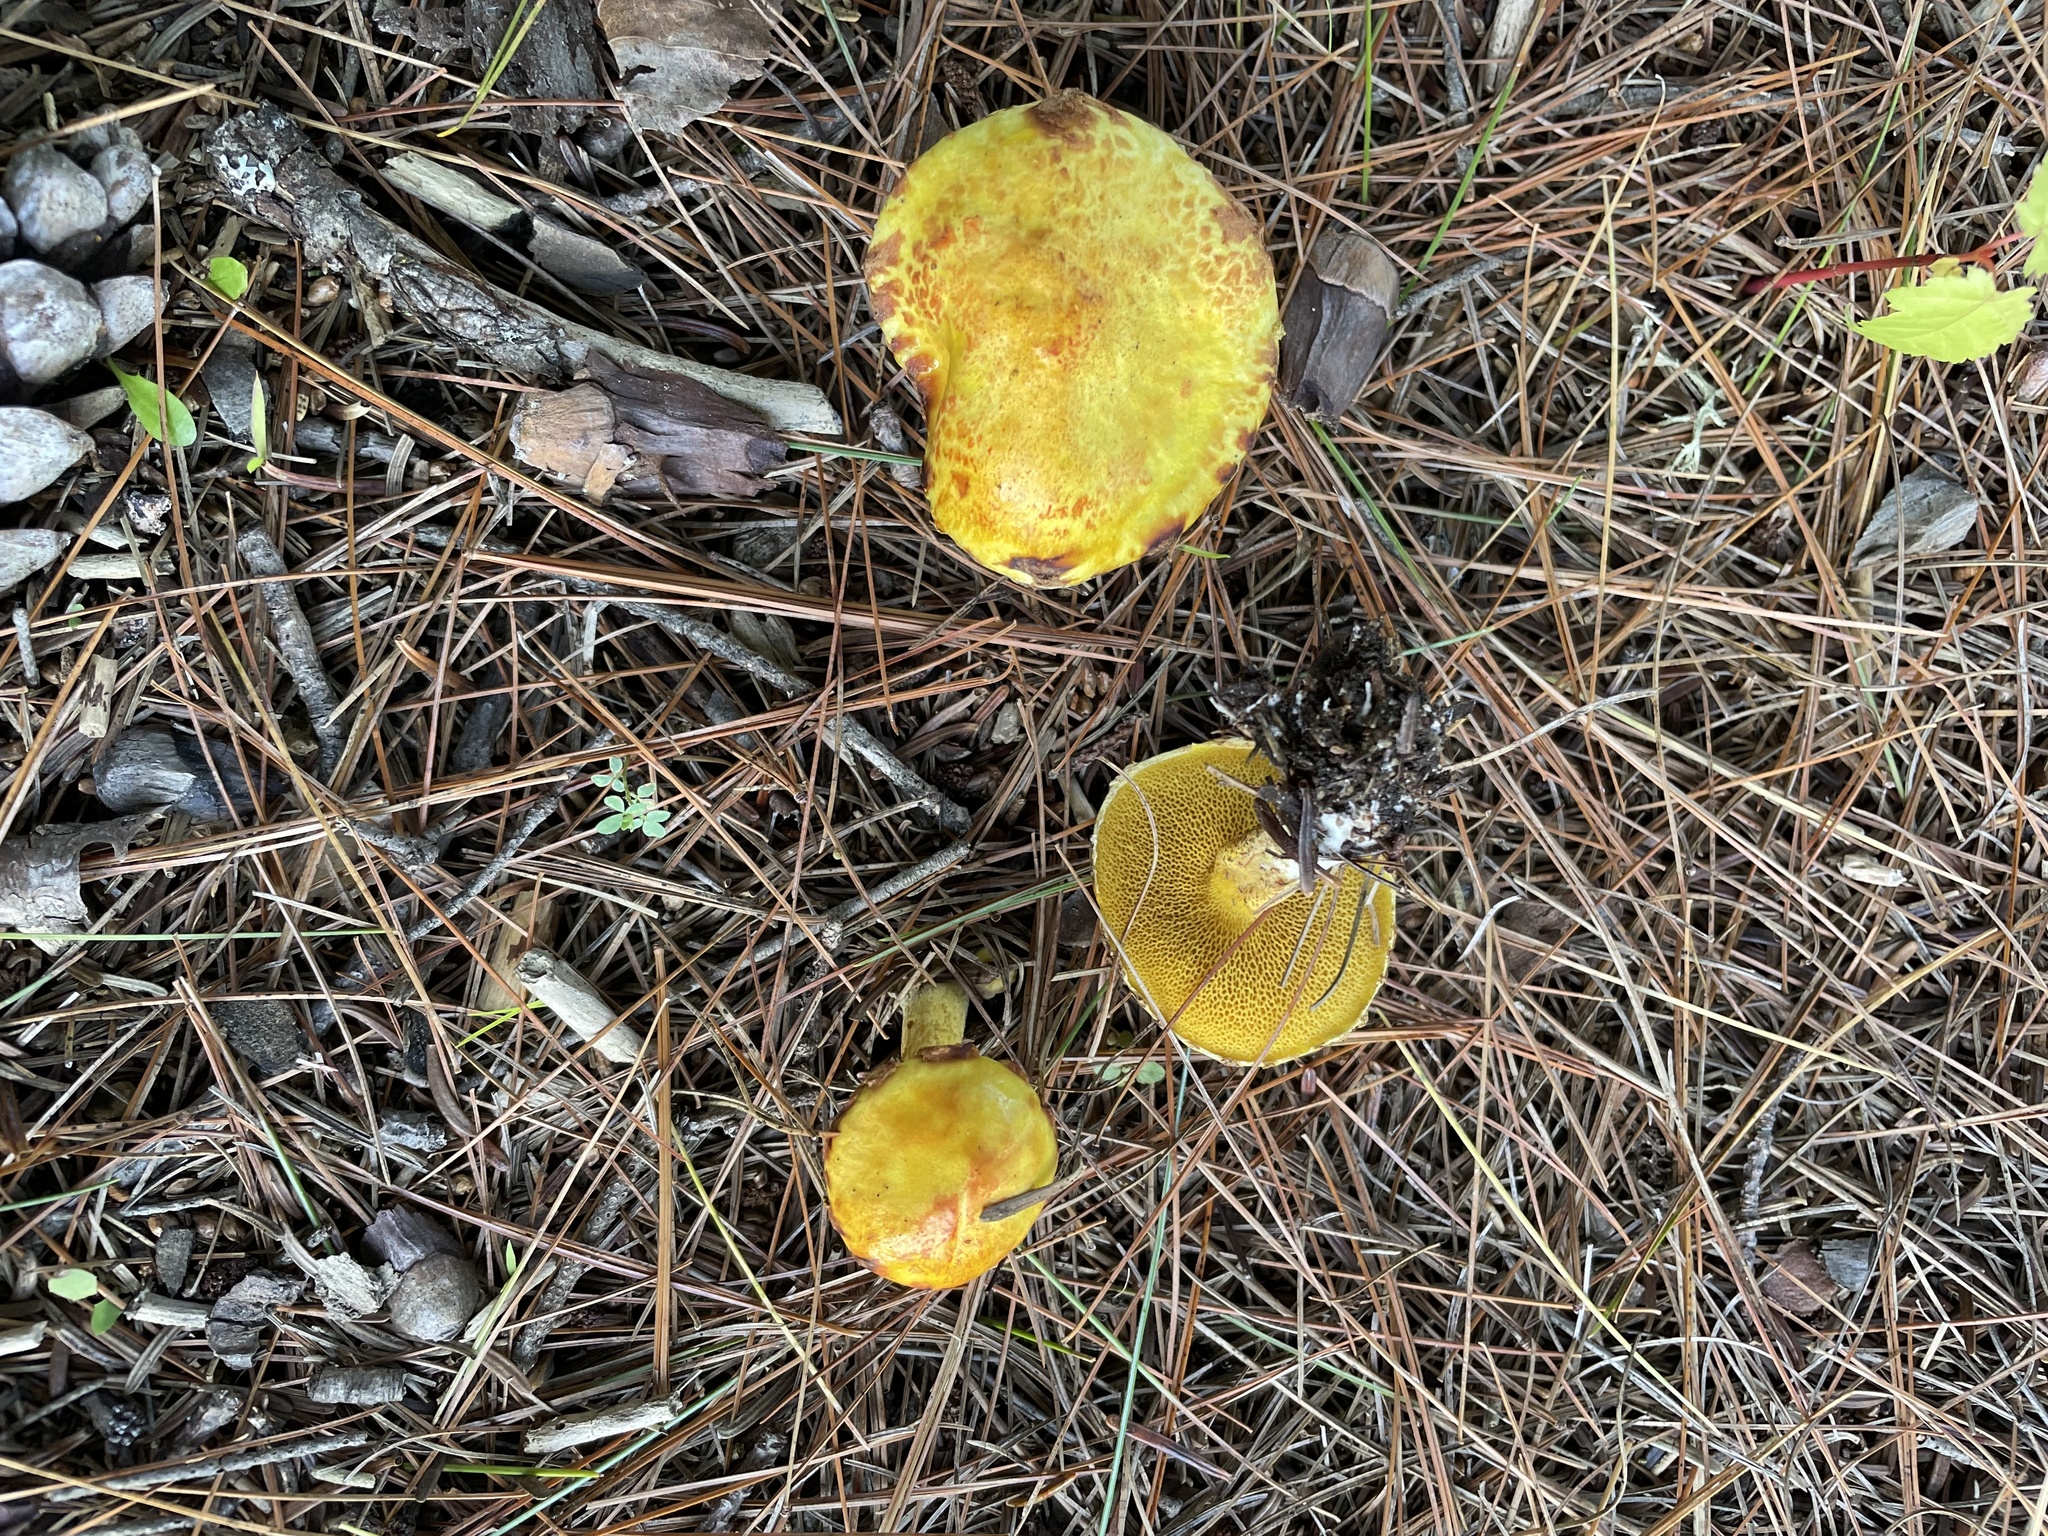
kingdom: Fungi
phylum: Basidiomycota
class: Agaricomycetes
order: Boletales
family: Suillaceae
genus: Suillus
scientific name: Suillus americanus
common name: Chicken fat mushroom
